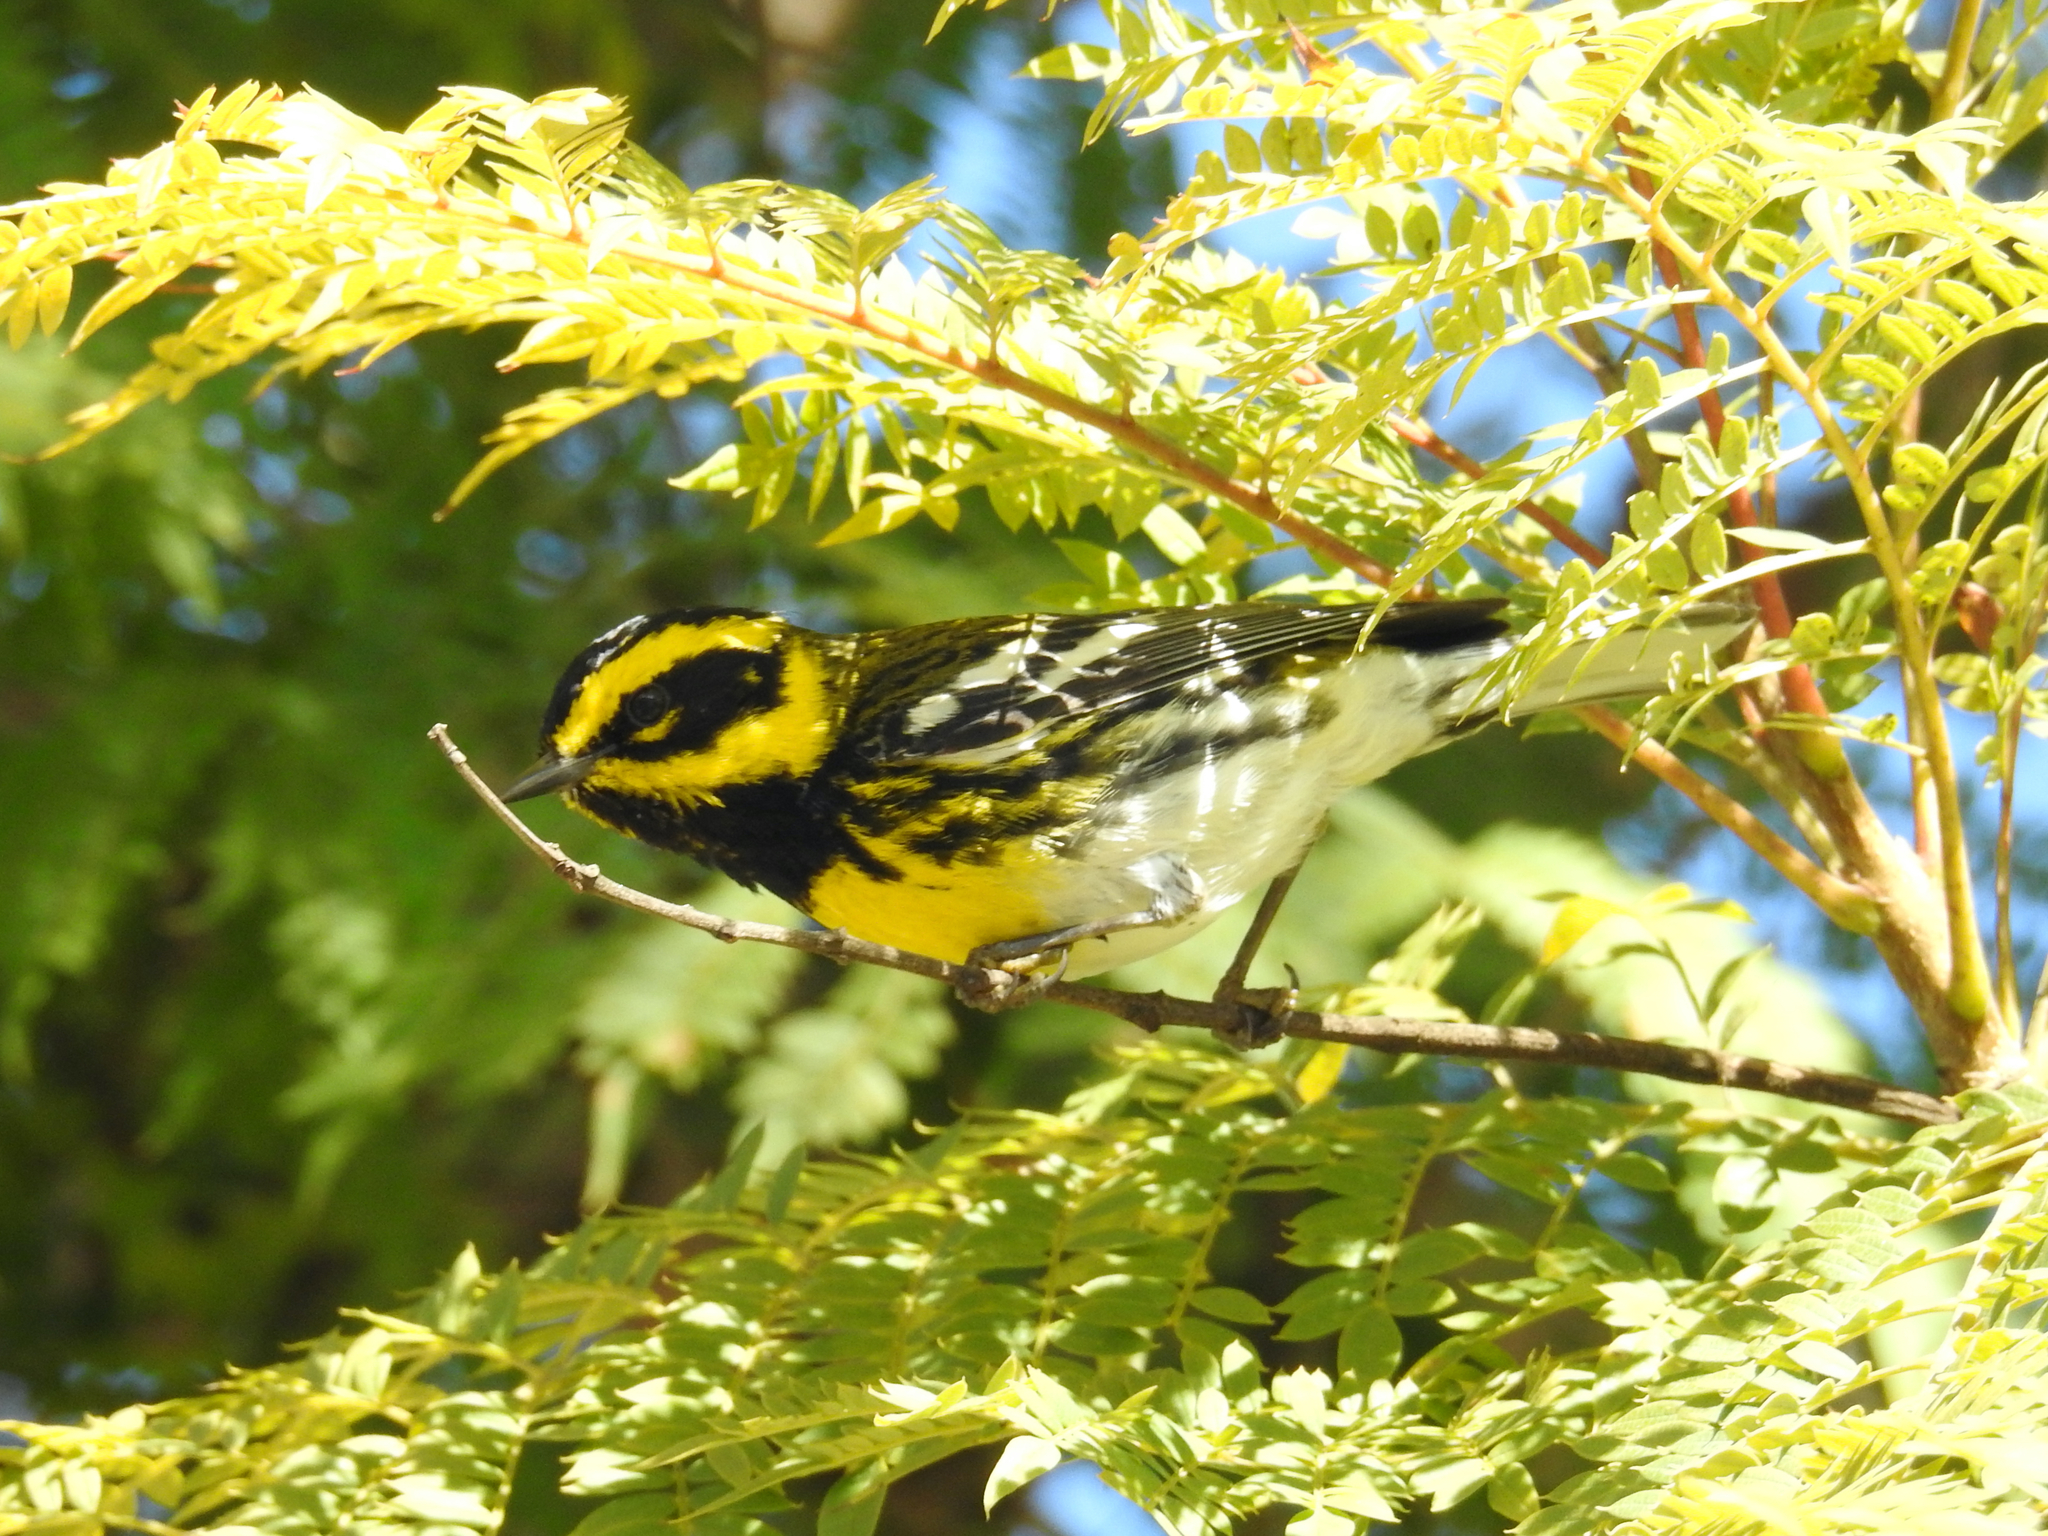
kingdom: Animalia
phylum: Chordata
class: Aves
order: Passeriformes
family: Parulidae
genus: Setophaga
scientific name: Setophaga townsendi
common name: Townsend's warbler
